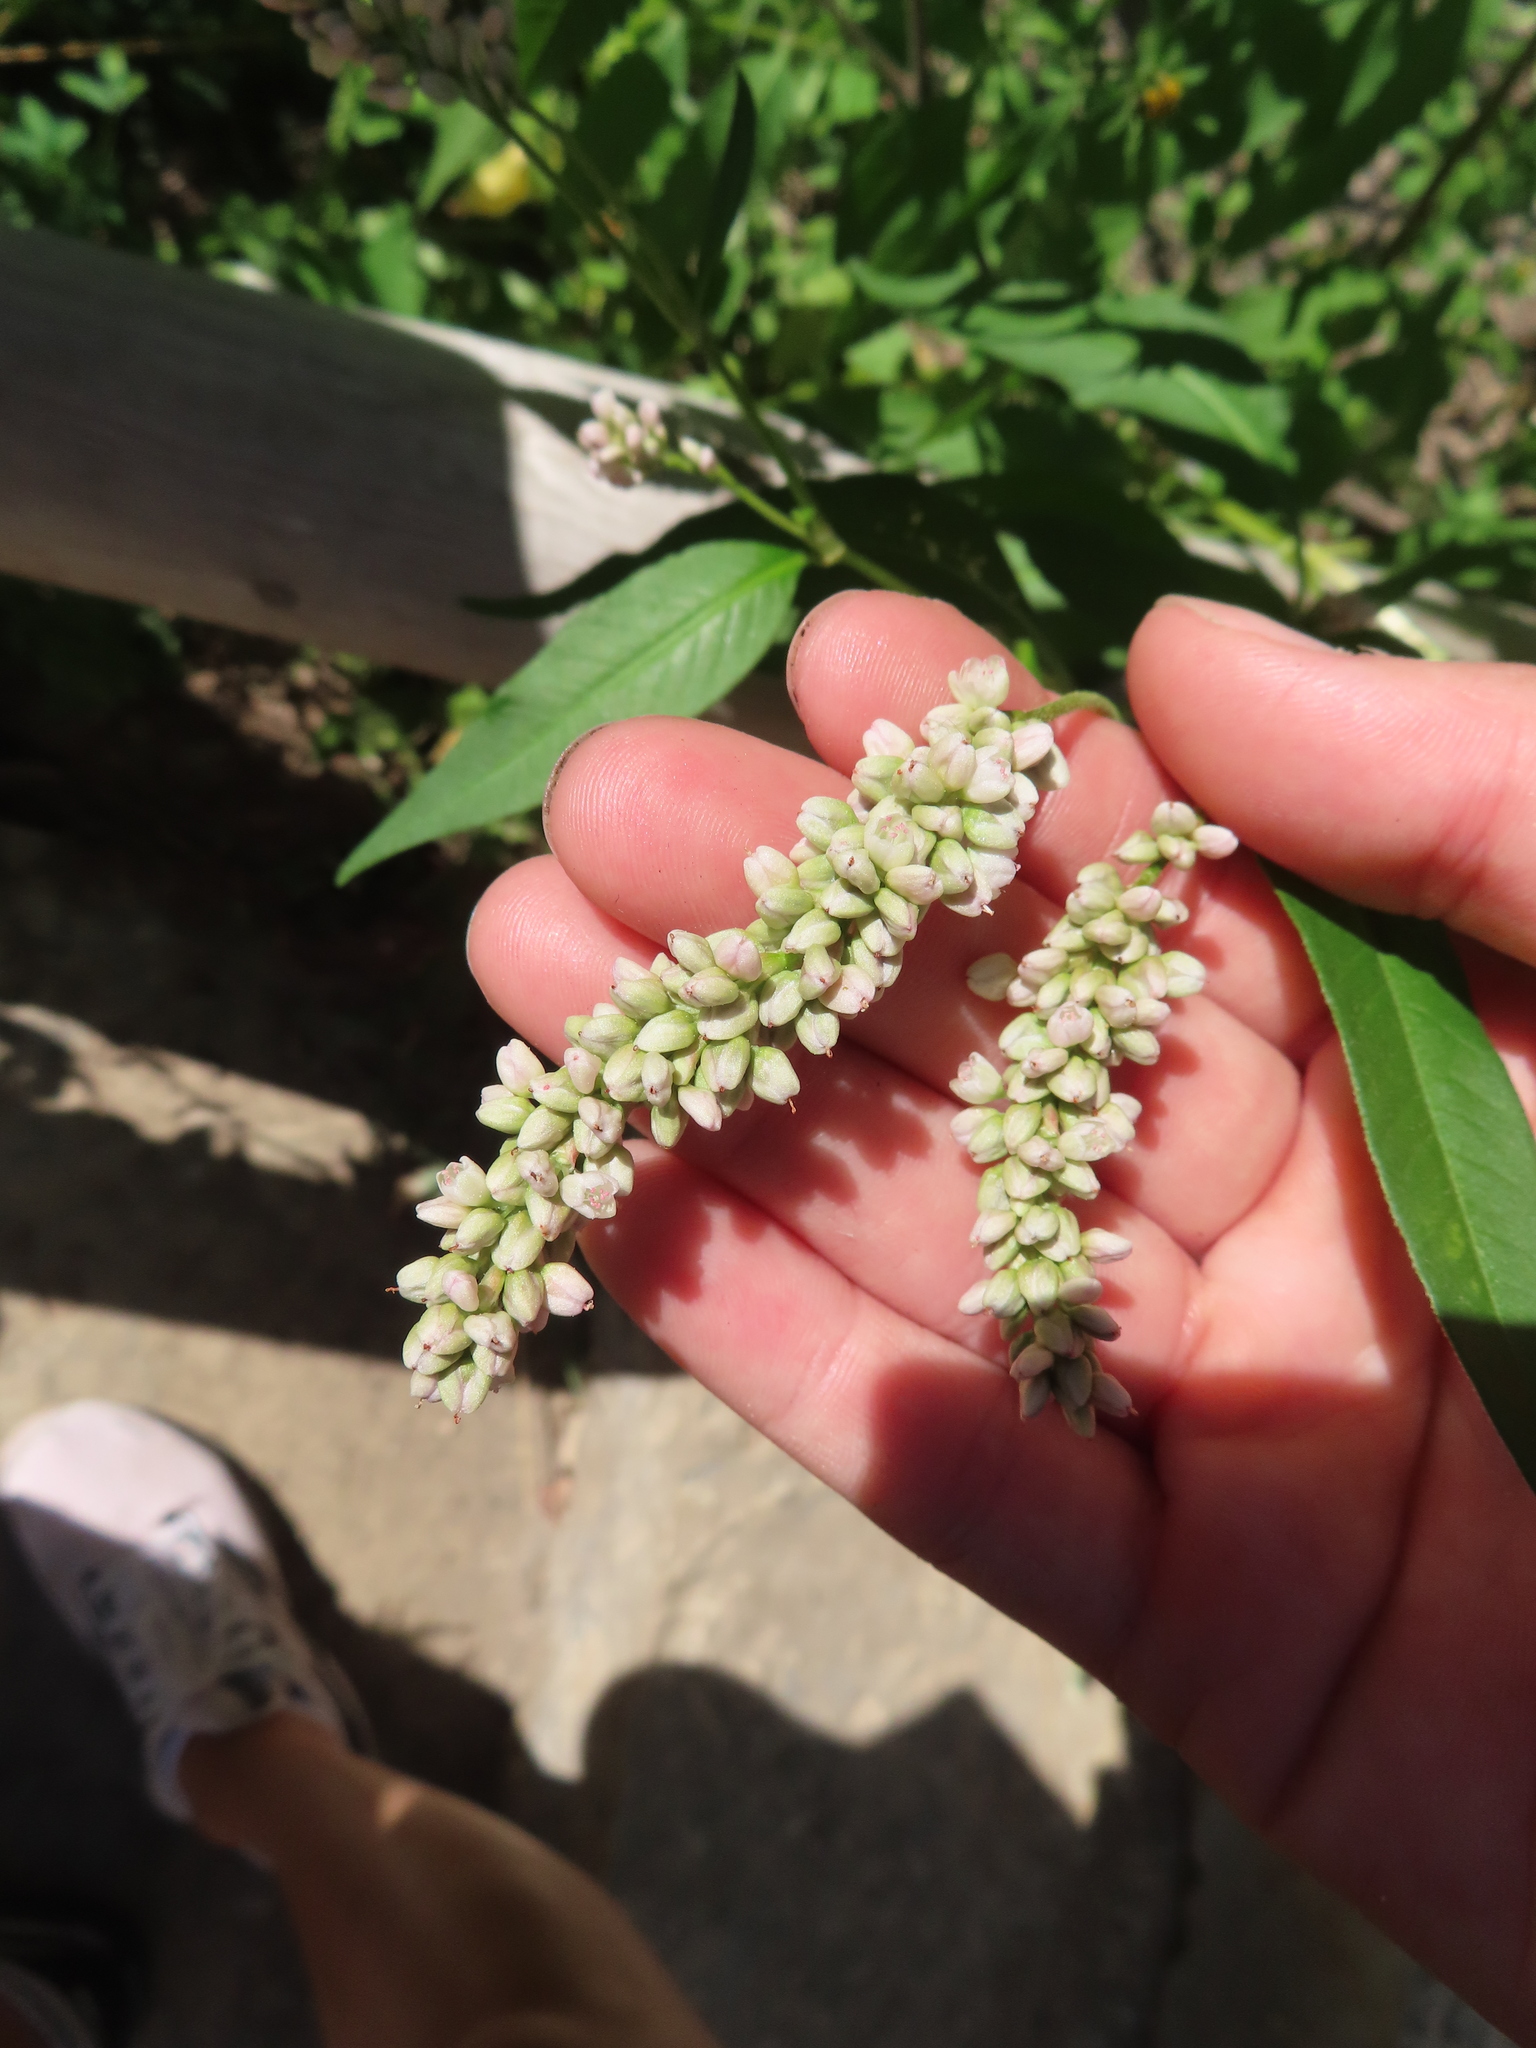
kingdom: Plantae
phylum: Tracheophyta
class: Magnoliopsida
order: Caryophyllales
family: Polygonaceae
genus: Persicaria
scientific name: Persicaria lapathifolia
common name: Curlytop knotweed
